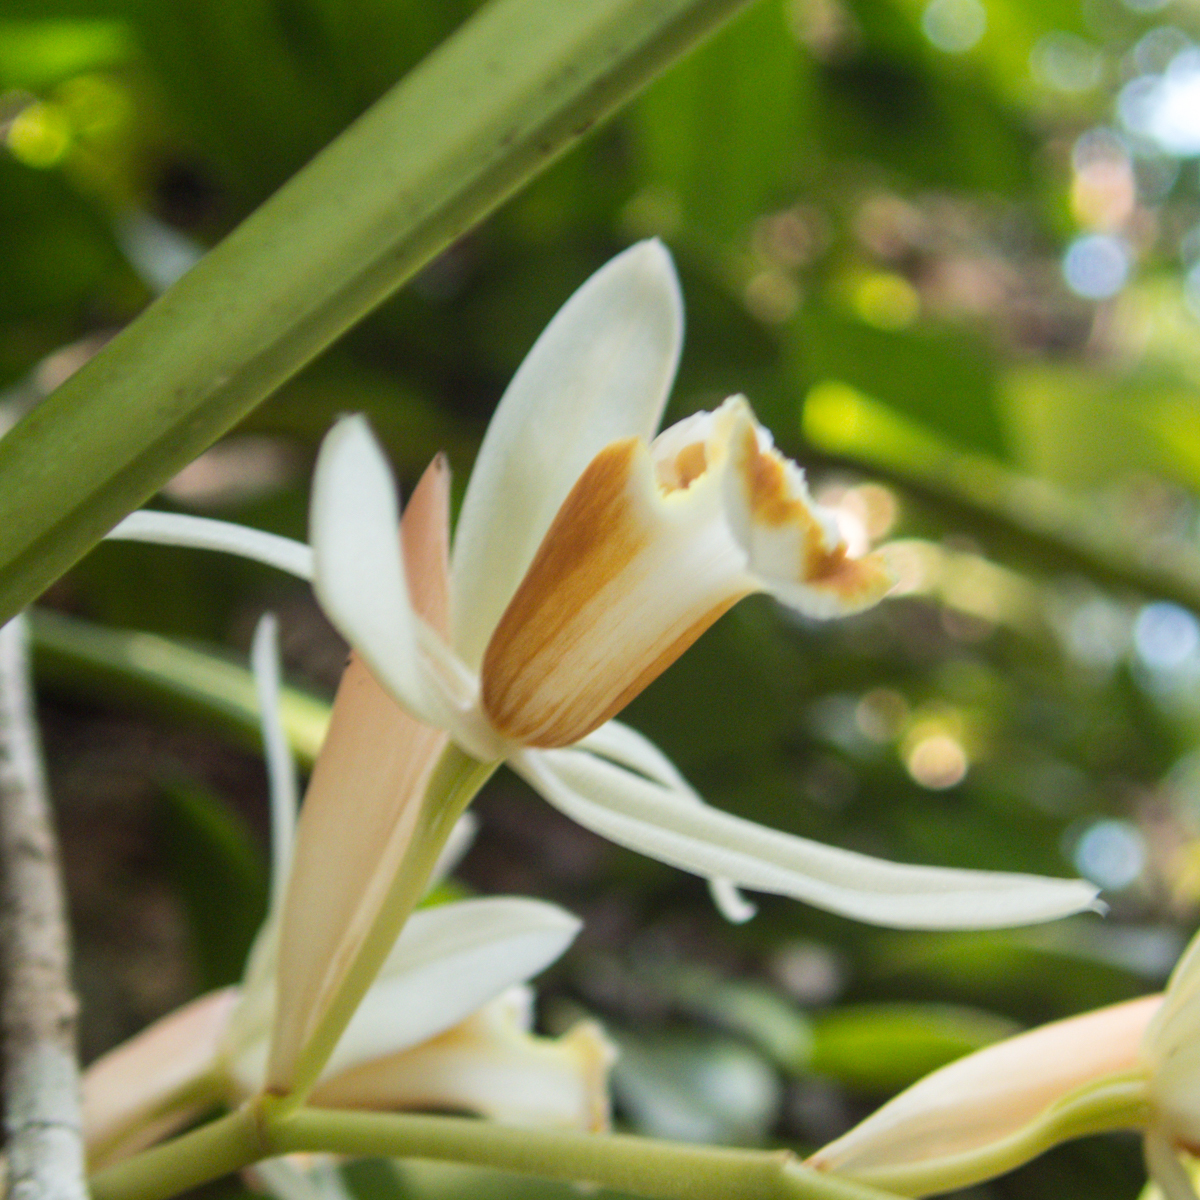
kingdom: Plantae
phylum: Tracheophyta
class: Liliopsida
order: Asparagales
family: Orchidaceae
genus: Coelogyne
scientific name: Coelogyne trinervis
